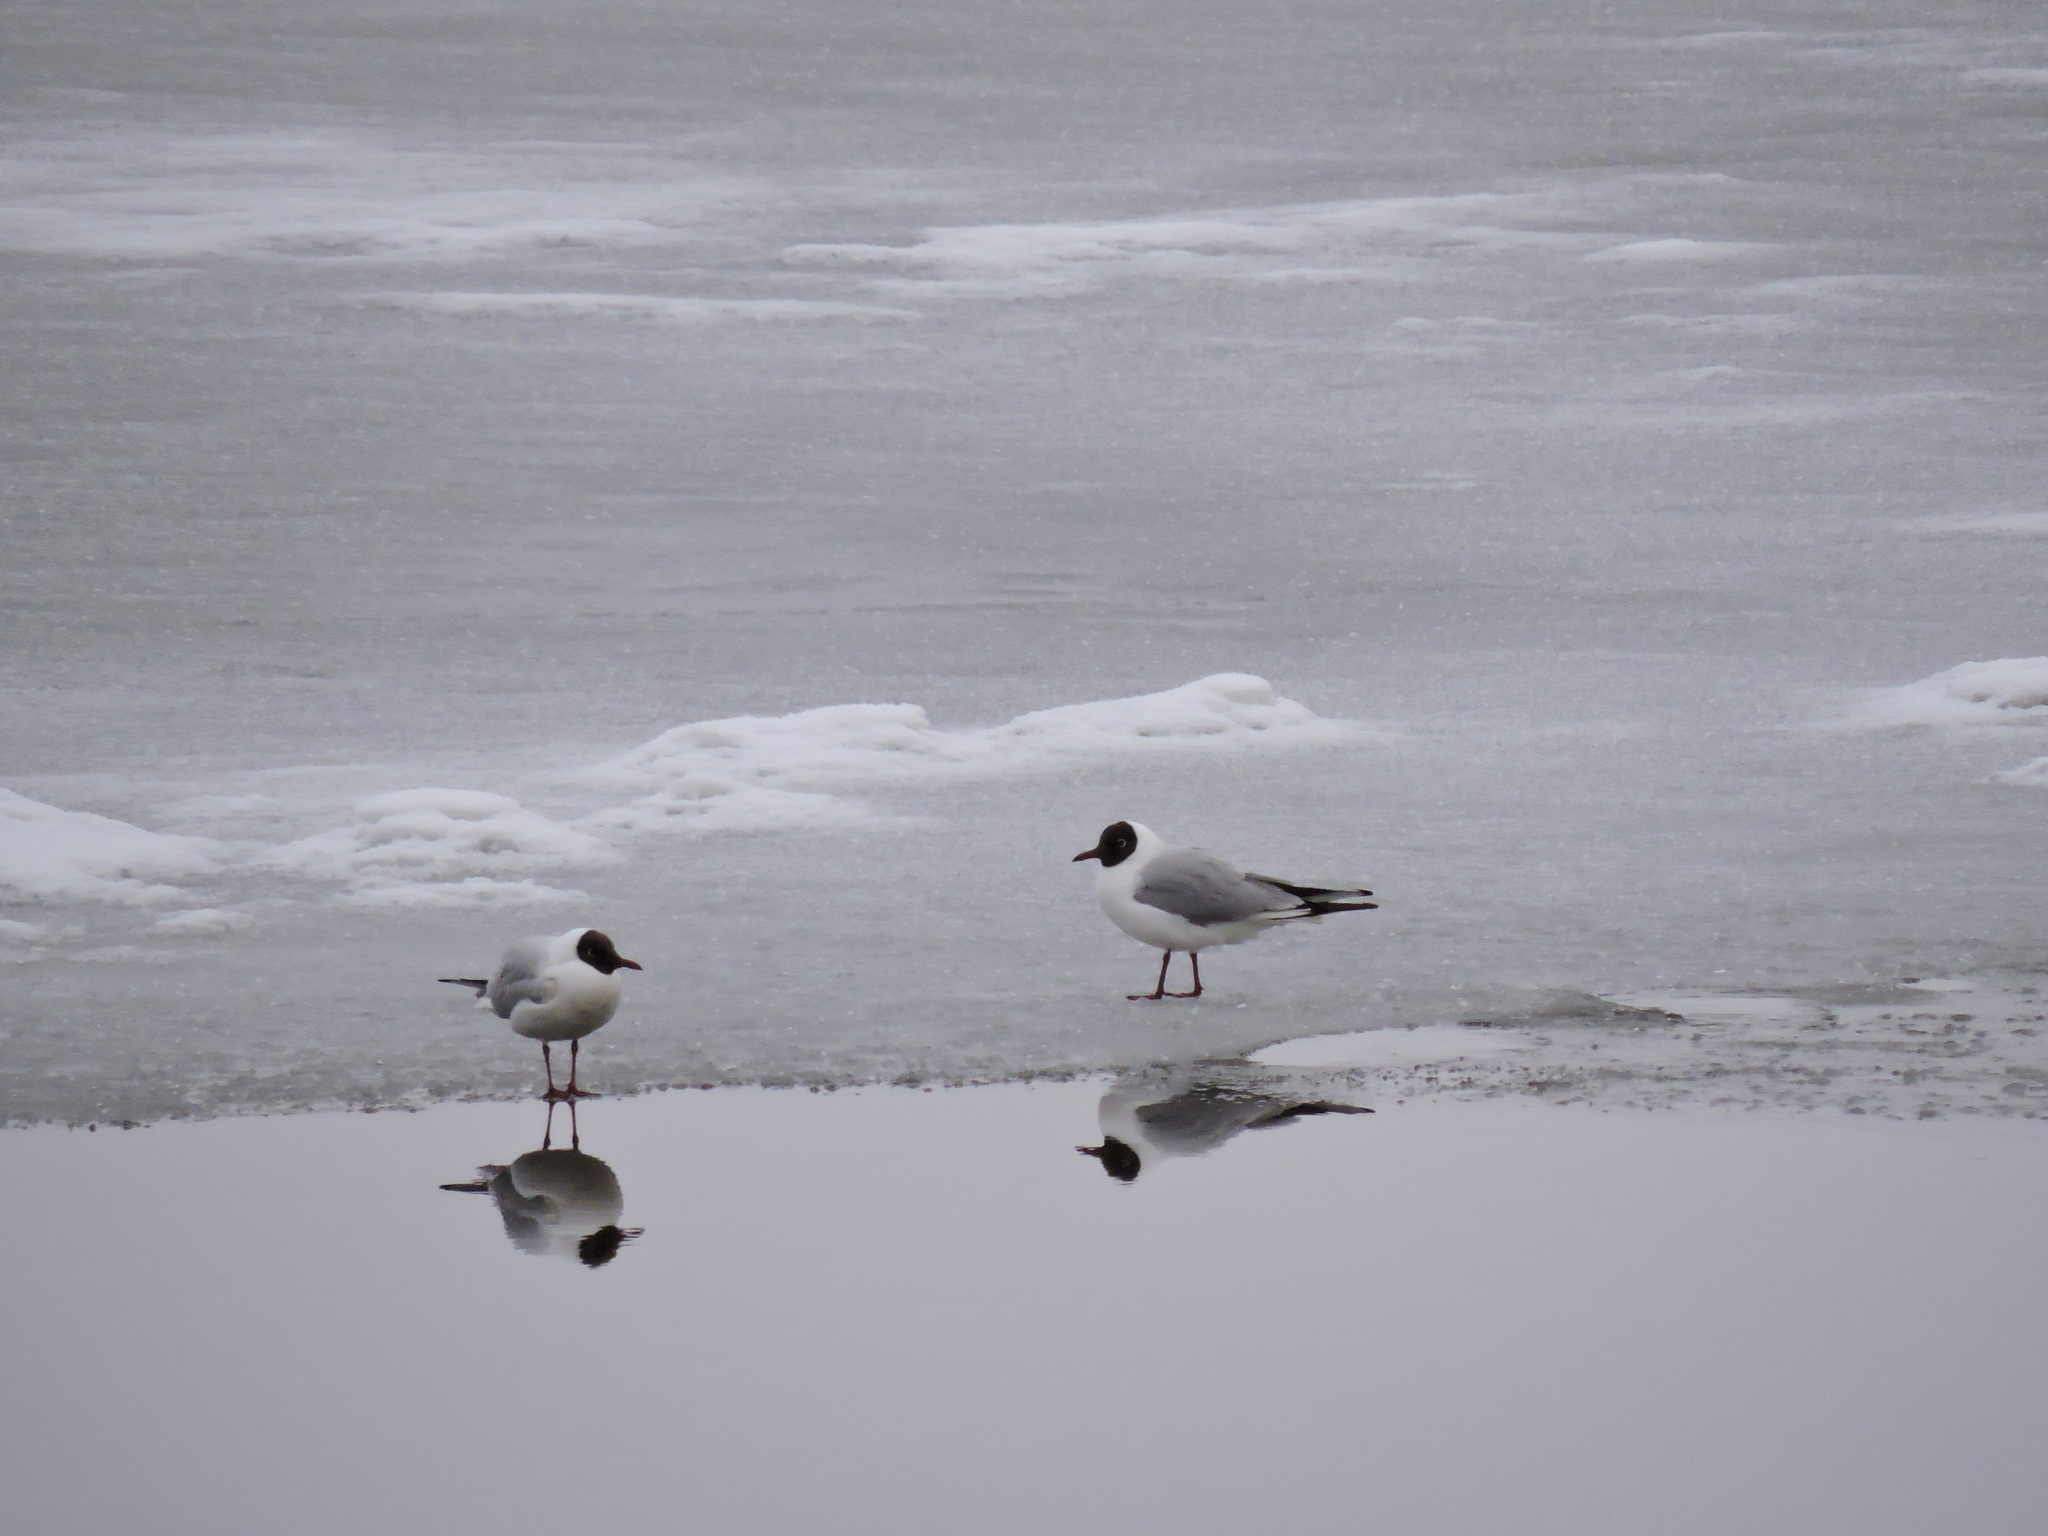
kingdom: Animalia
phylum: Chordata
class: Aves
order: Charadriiformes
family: Laridae
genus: Chroicocephalus
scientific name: Chroicocephalus ridibundus
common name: Black-headed gull
